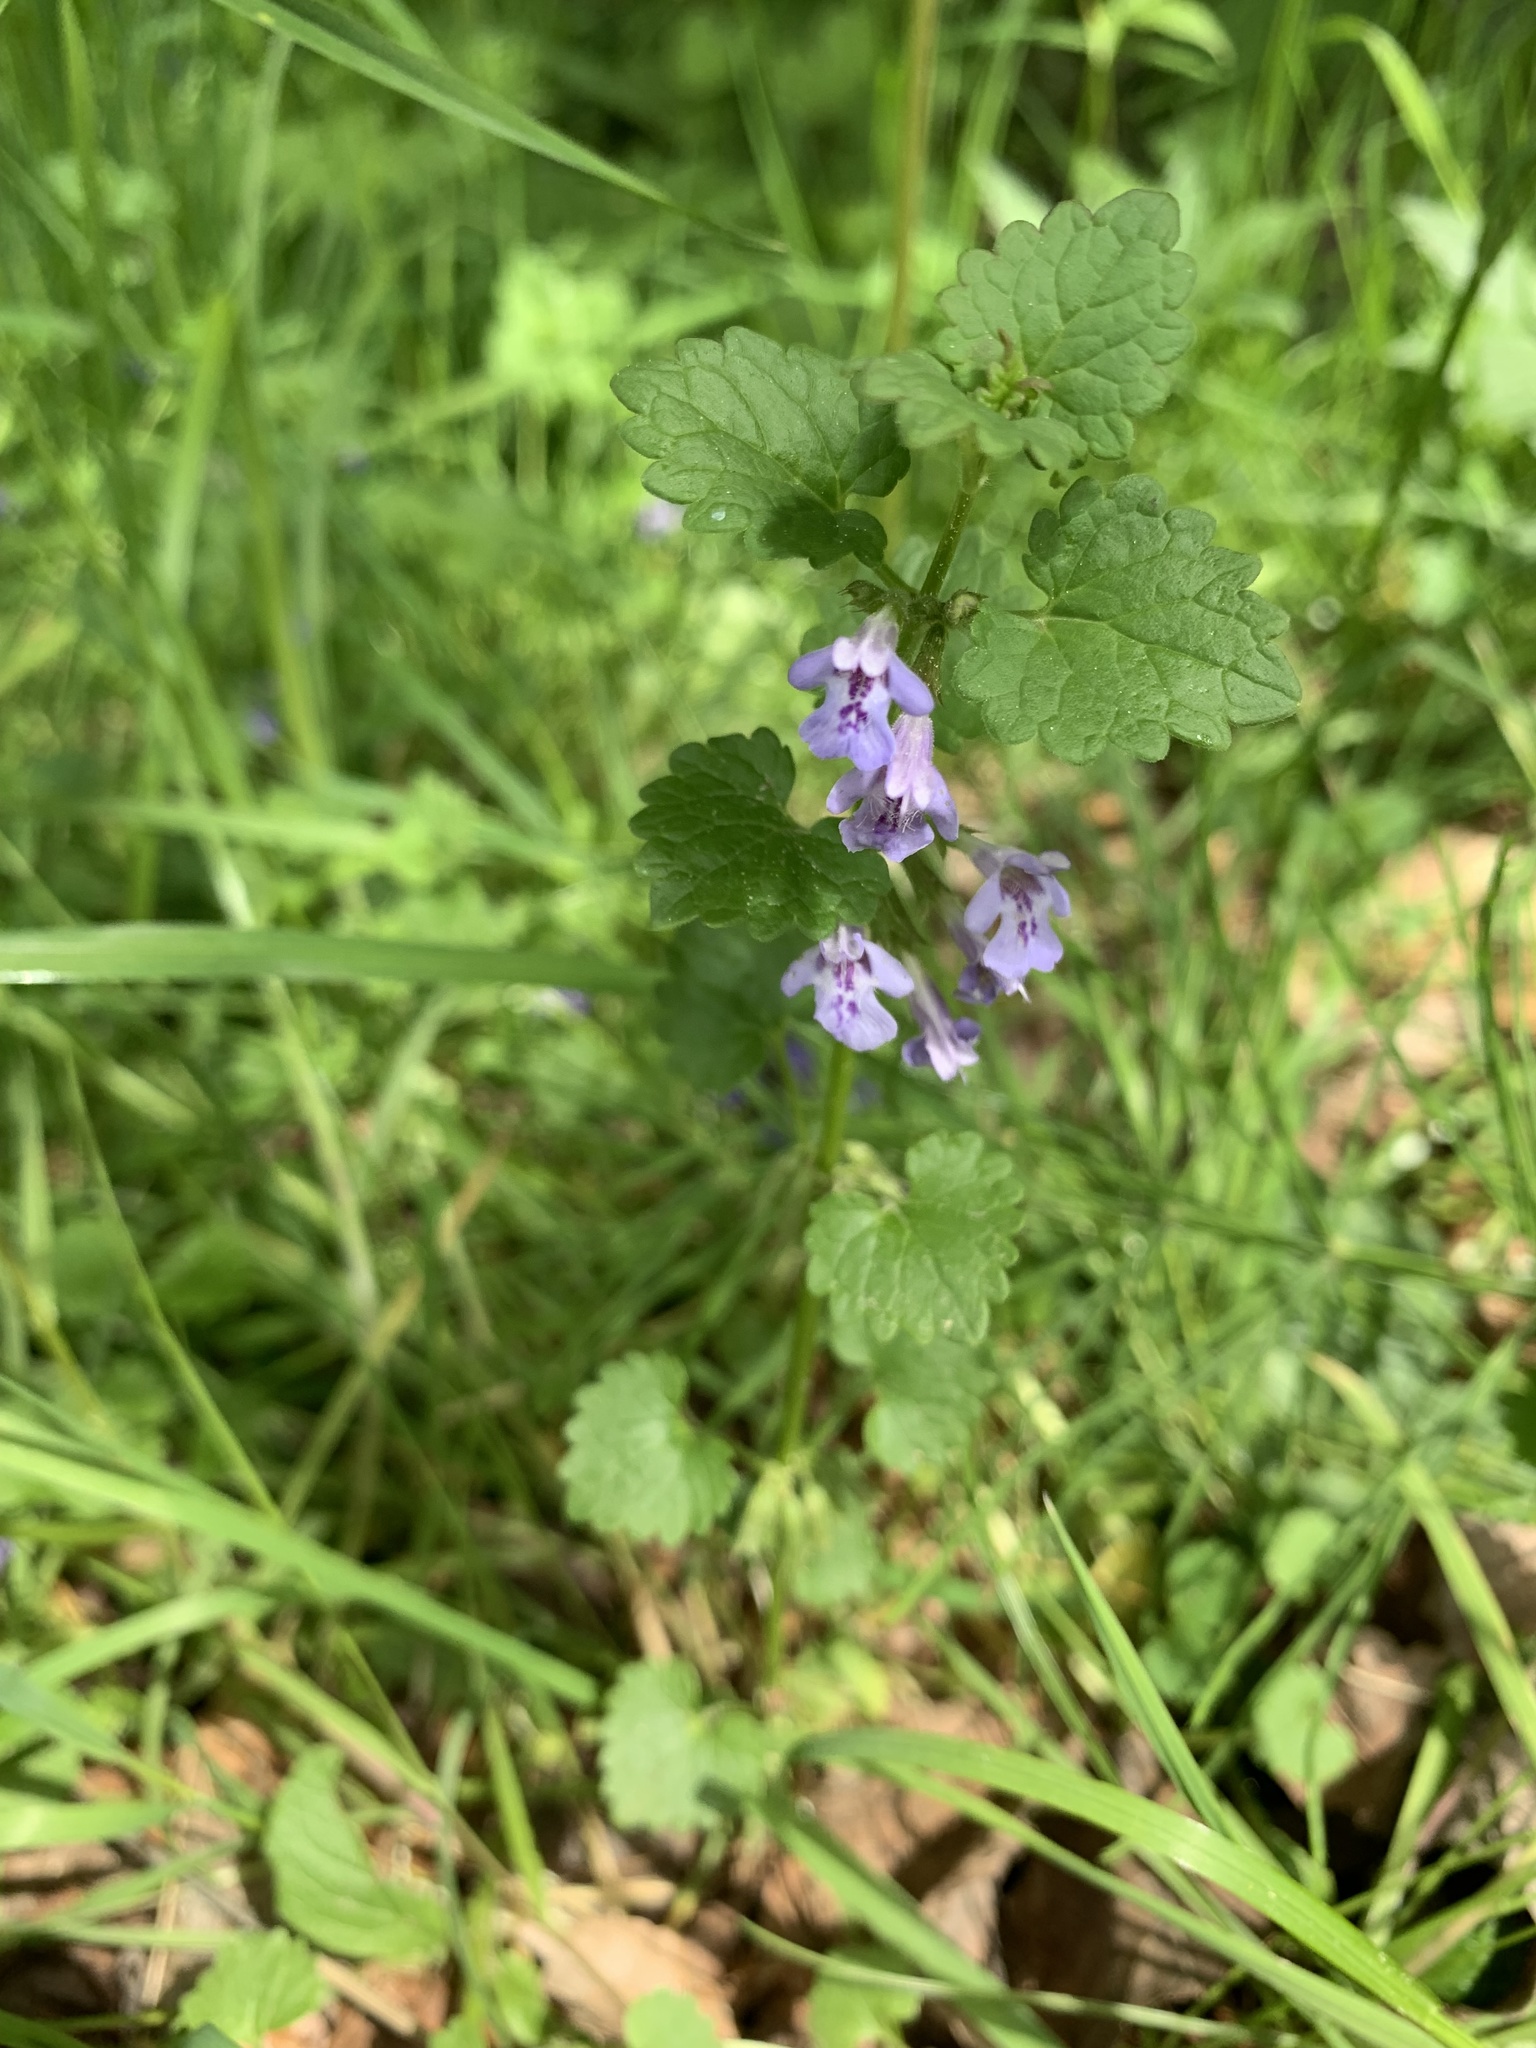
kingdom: Plantae
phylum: Tracheophyta
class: Magnoliopsida
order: Lamiales
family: Lamiaceae
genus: Glechoma
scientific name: Glechoma hederacea
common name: Ground ivy
